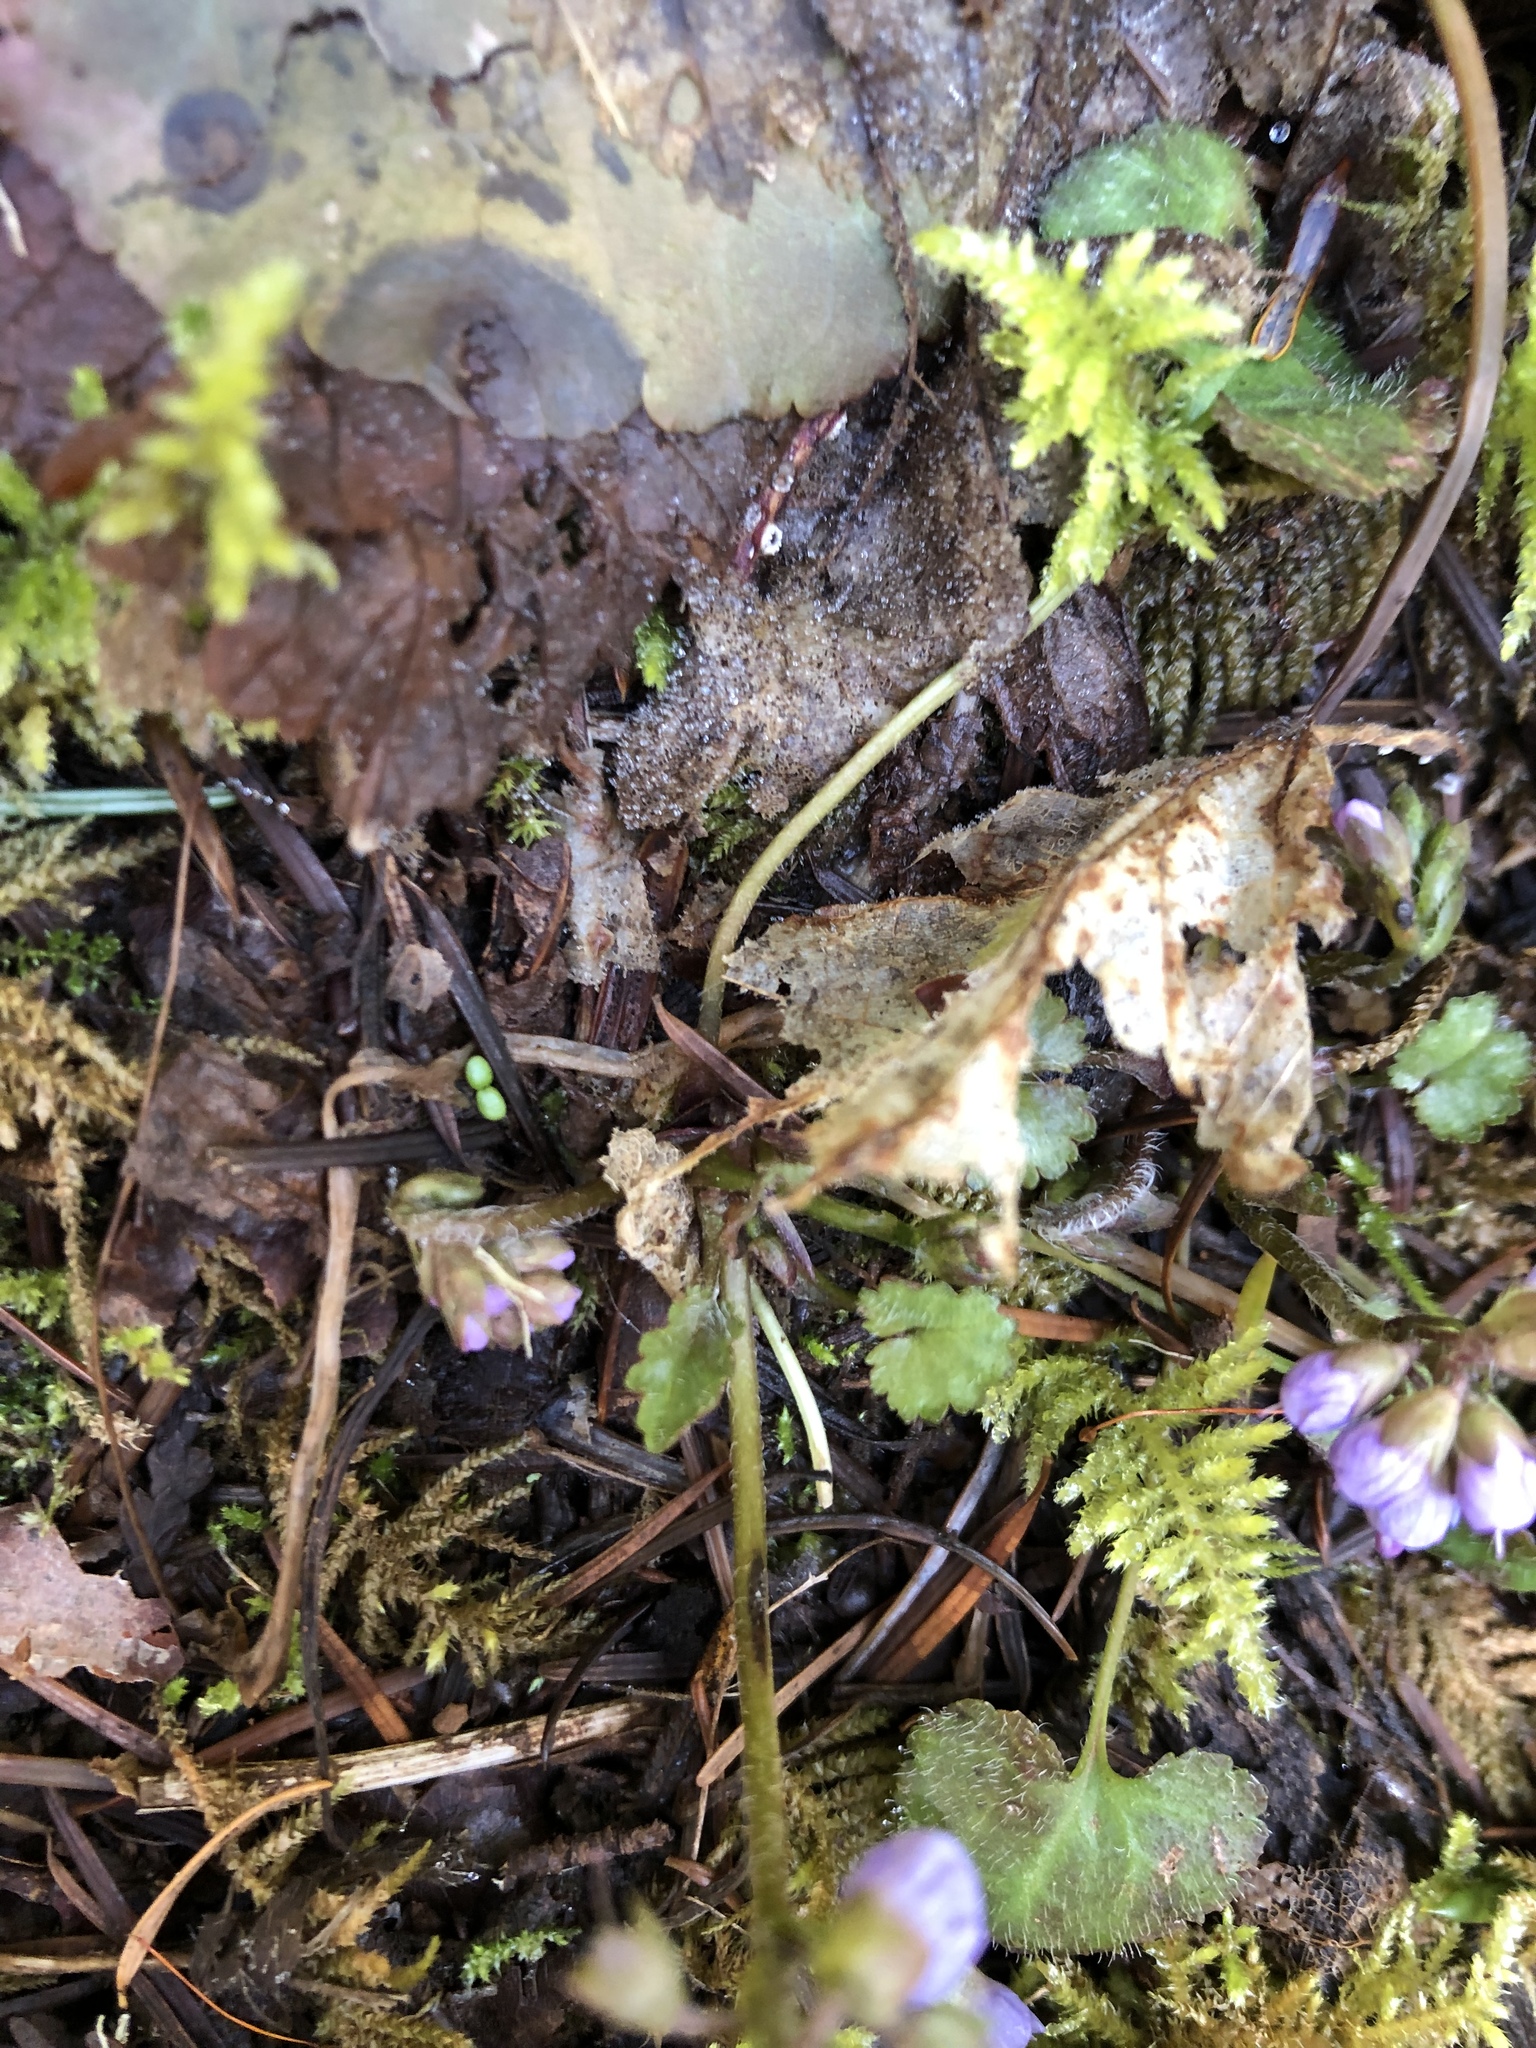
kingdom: Plantae
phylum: Tracheophyta
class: Magnoliopsida
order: Lamiales
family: Plantaginaceae
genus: Synthyris
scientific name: Synthyris reniformis
